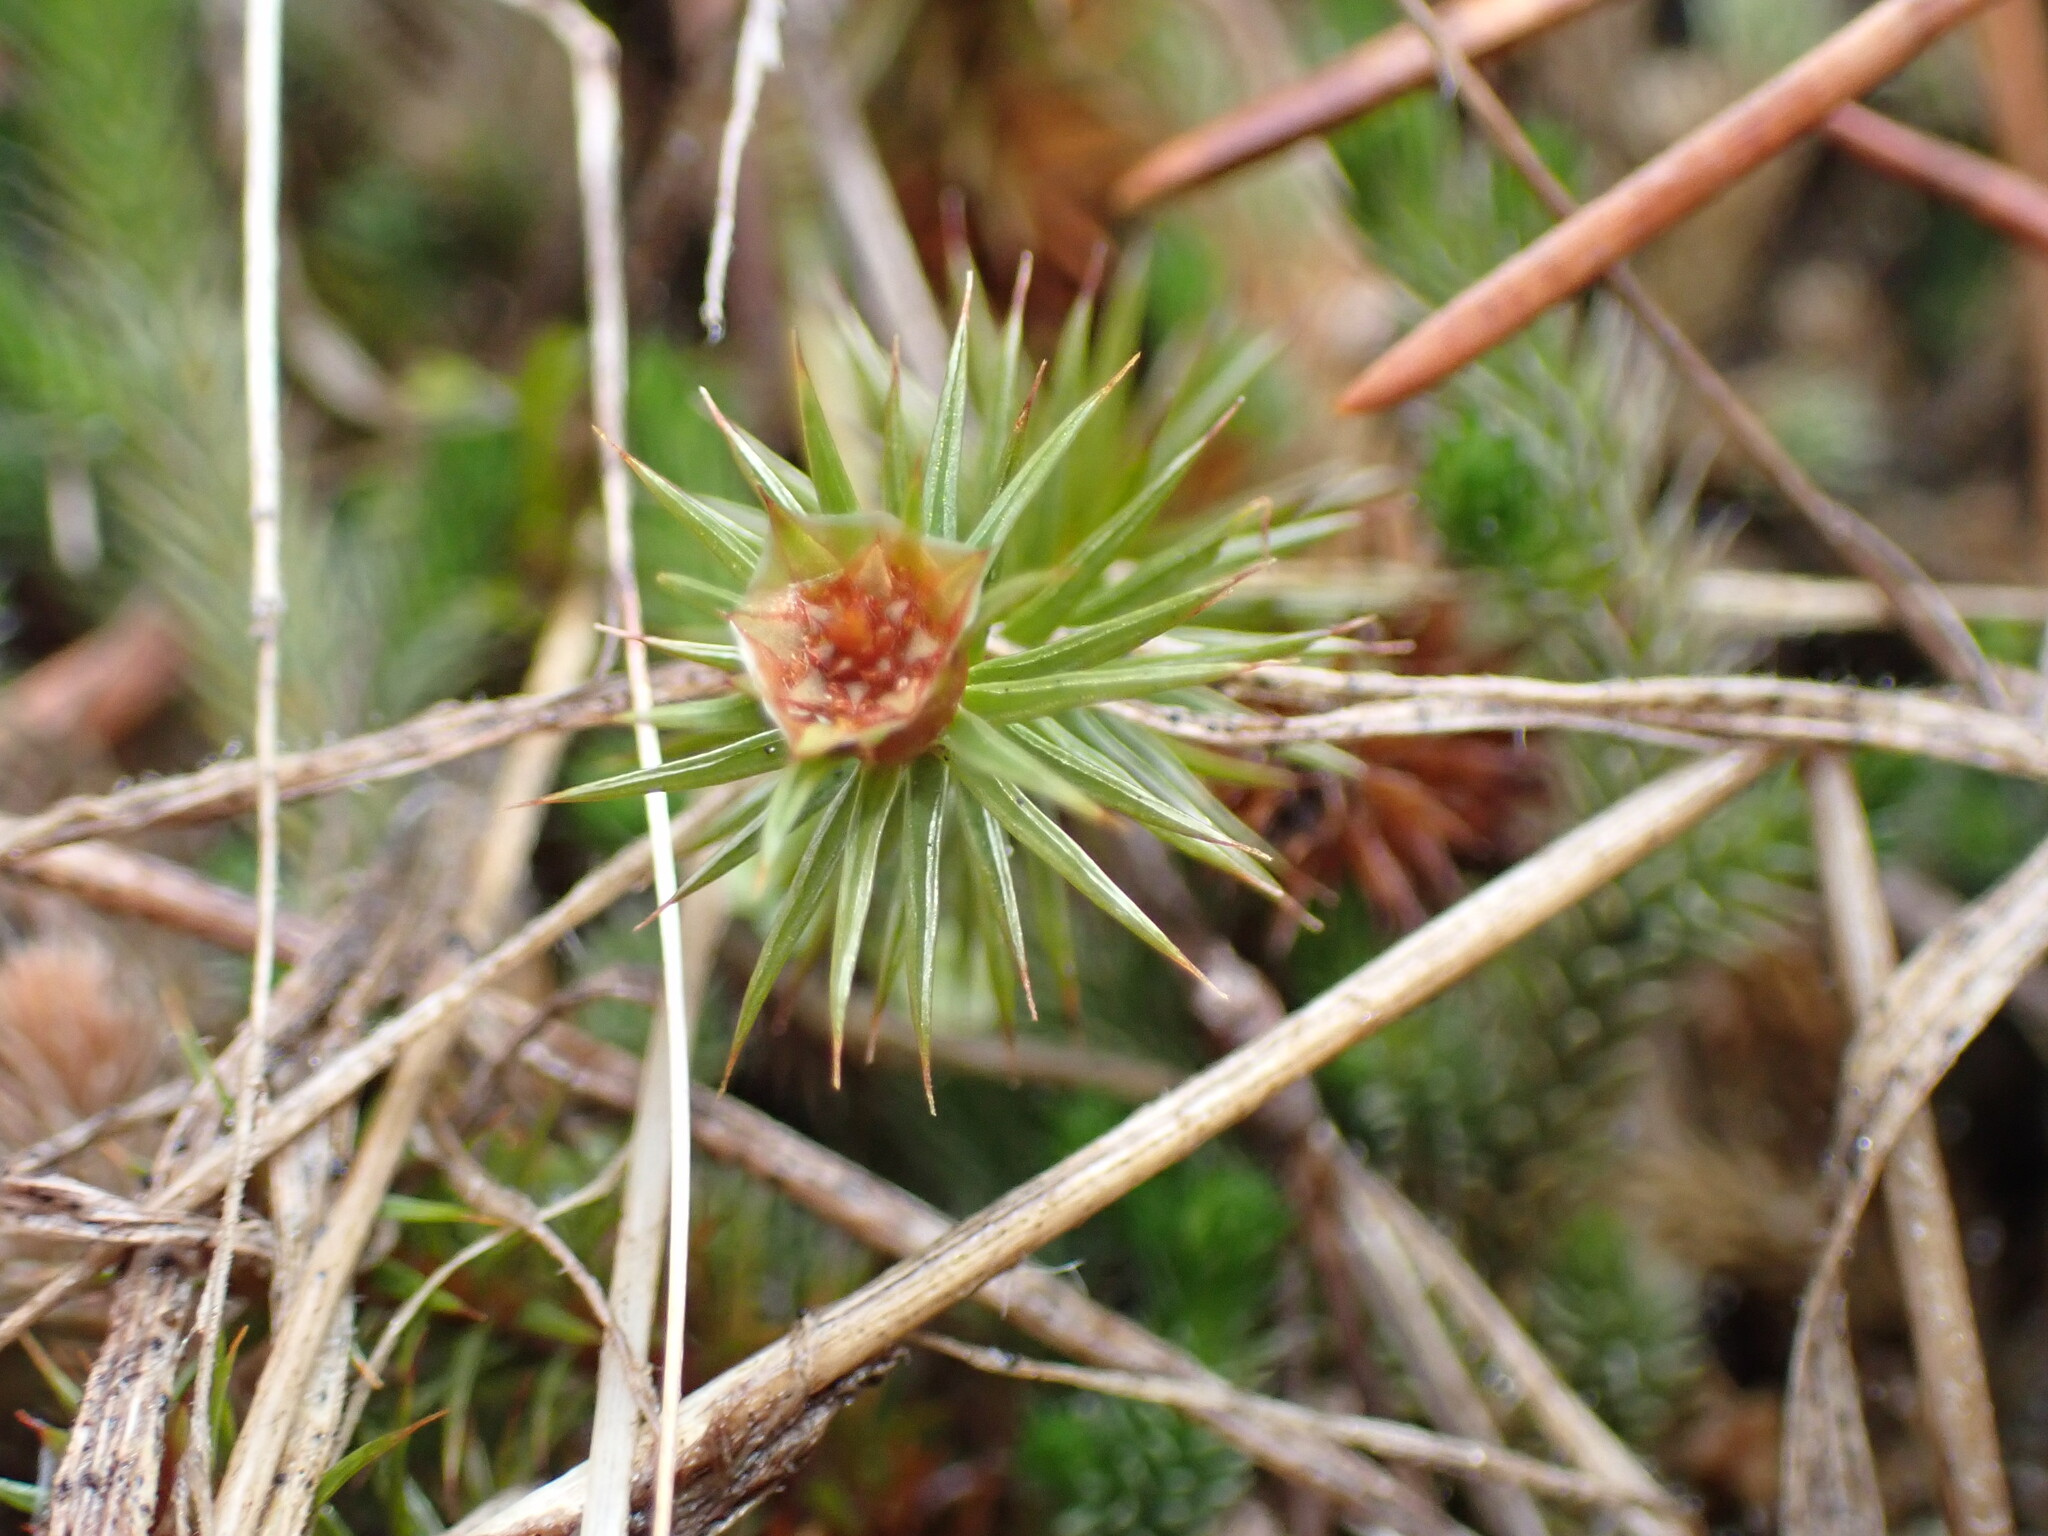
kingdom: Plantae
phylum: Bryophyta
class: Polytrichopsida
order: Polytrichales
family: Polytrichaceae
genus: Polytrichum
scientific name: Polytrichum juniperinum
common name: Juniper haircap moss
